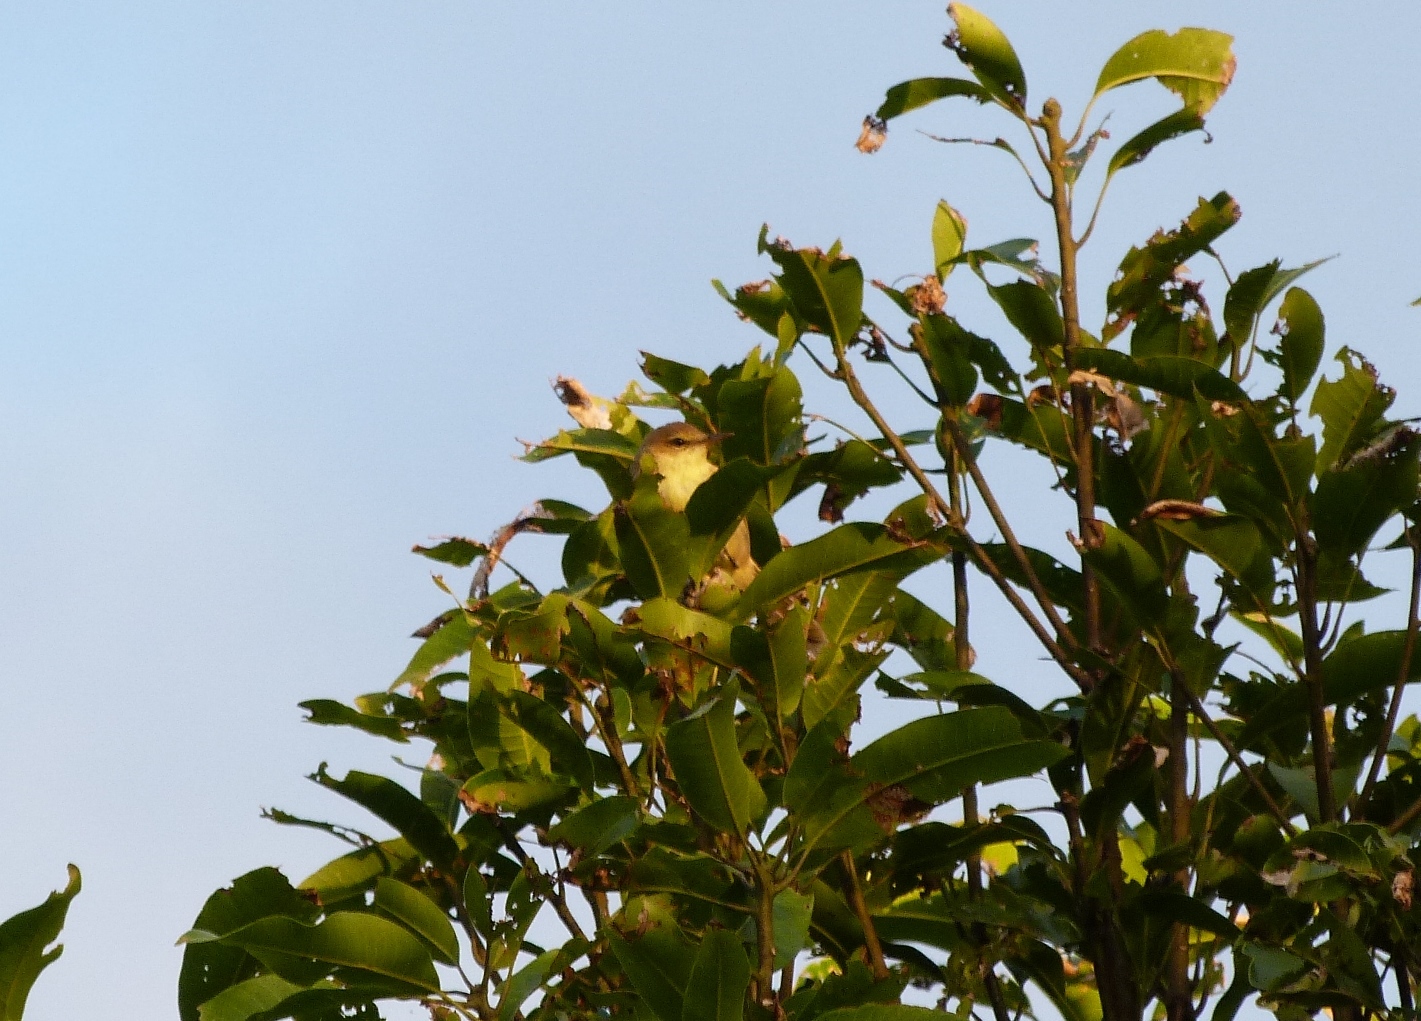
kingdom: Animalia
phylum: Chordata
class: Aves
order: Passeriformes
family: Acrocephalidae
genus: Acrocephalus
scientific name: Acrocephalus kerearako
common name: Cook reed warbler
